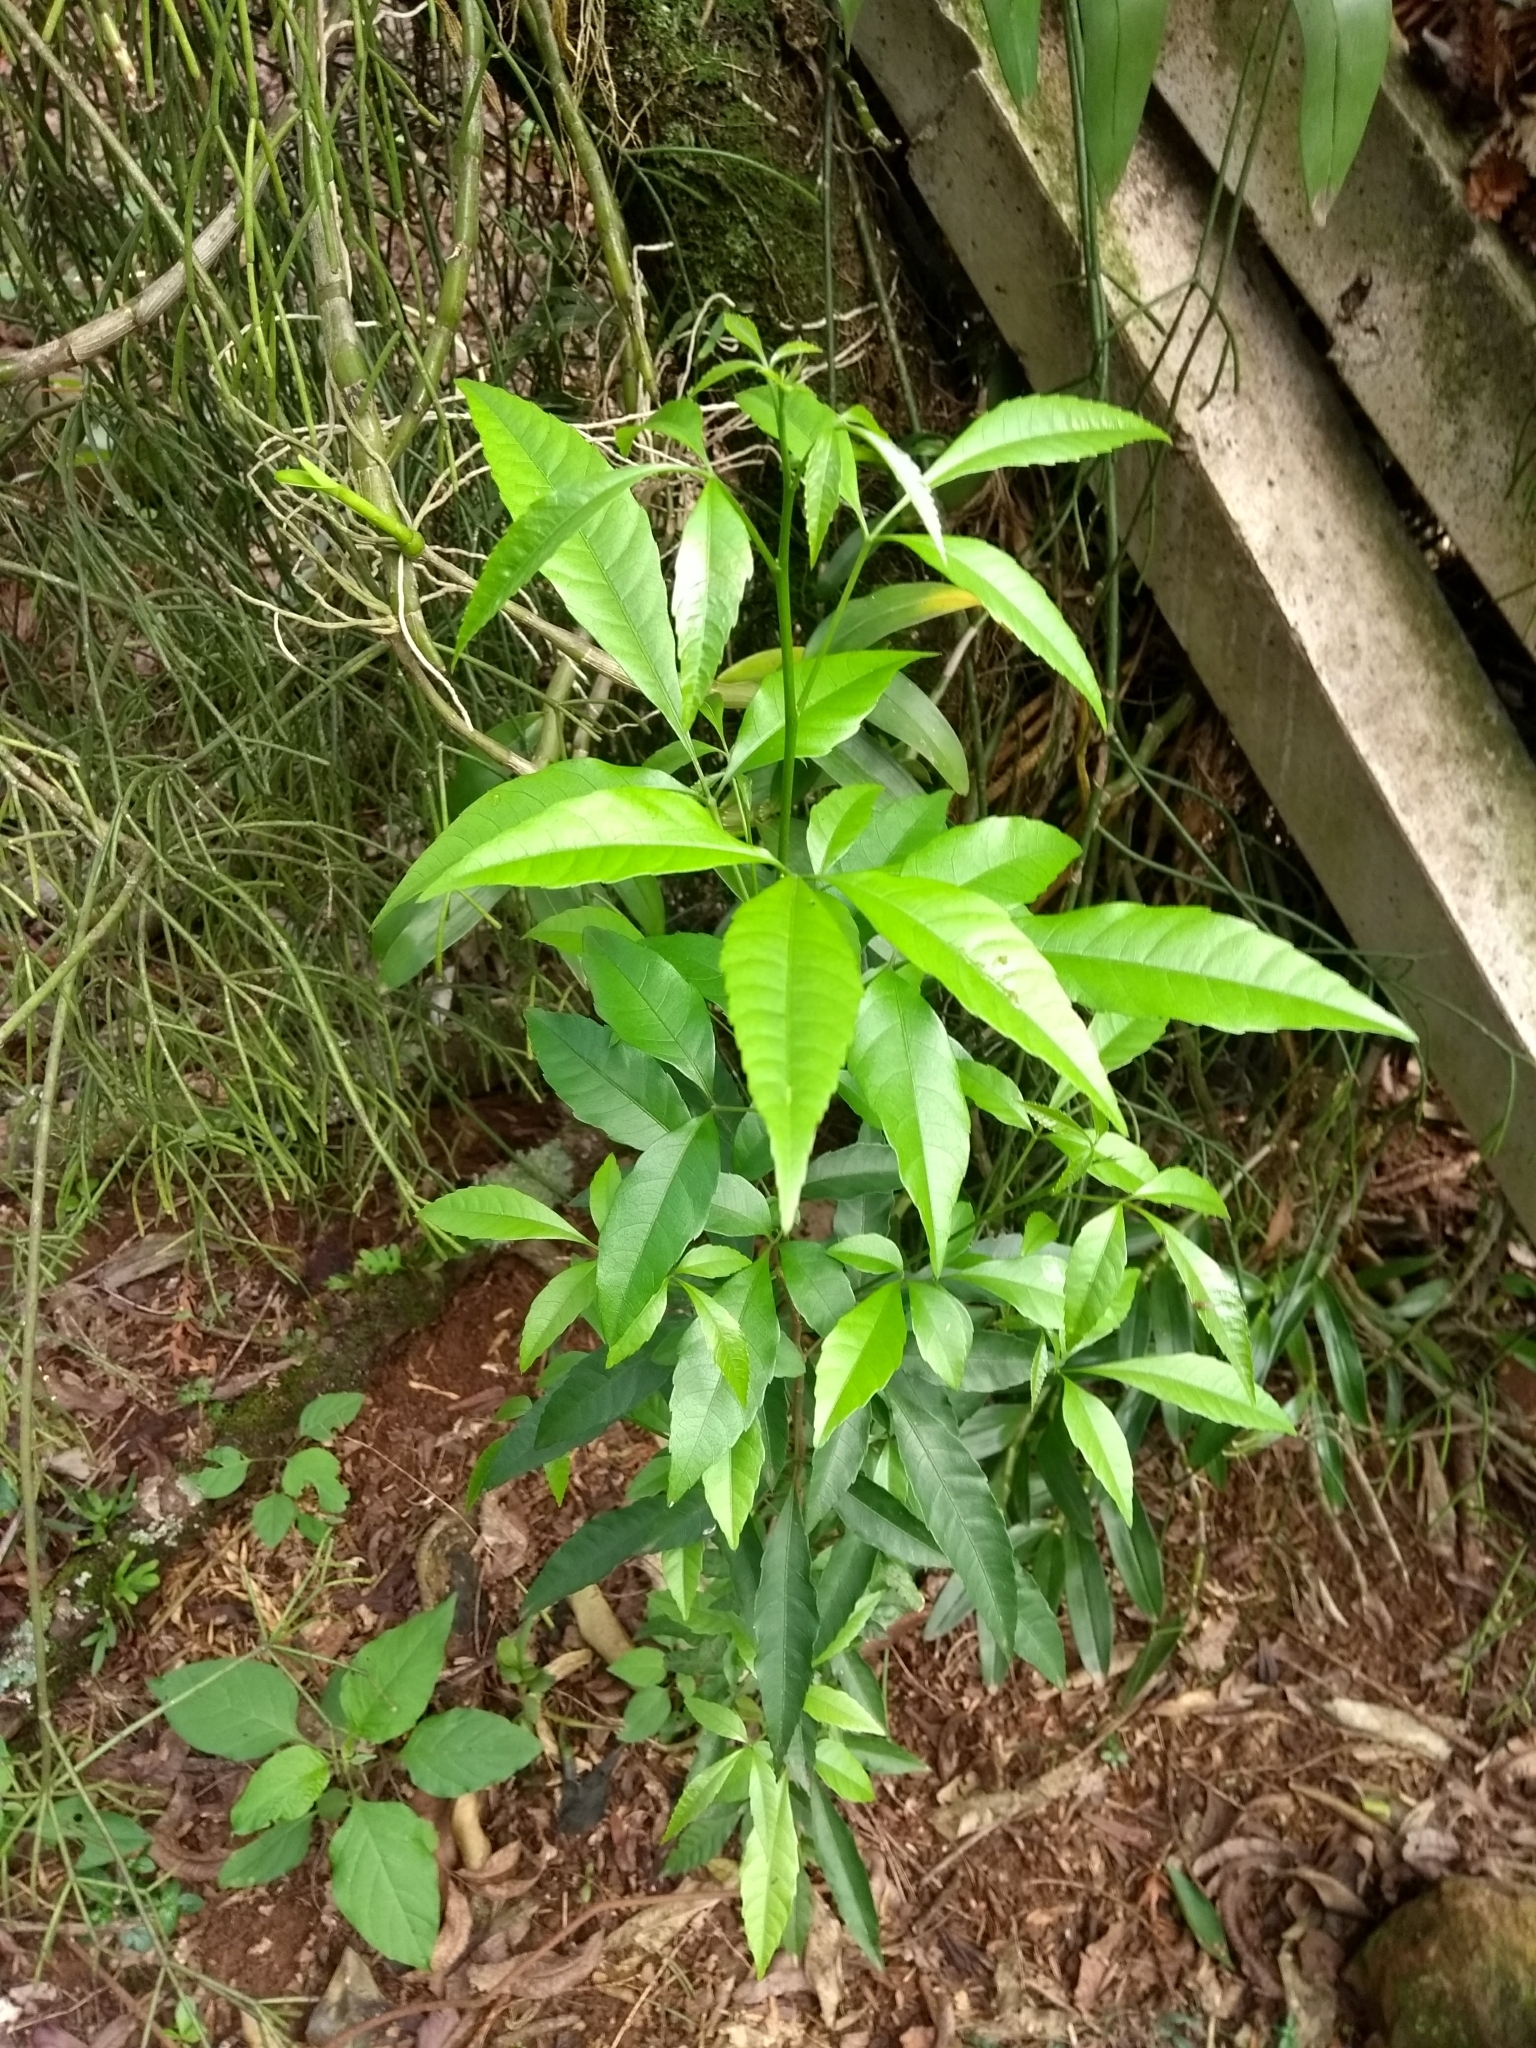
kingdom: Plantae
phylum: Tracheophyta
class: Magnoliopsida
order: Sapindales
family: Sapindaceae
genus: Allophylus
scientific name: Allophylus edulis
